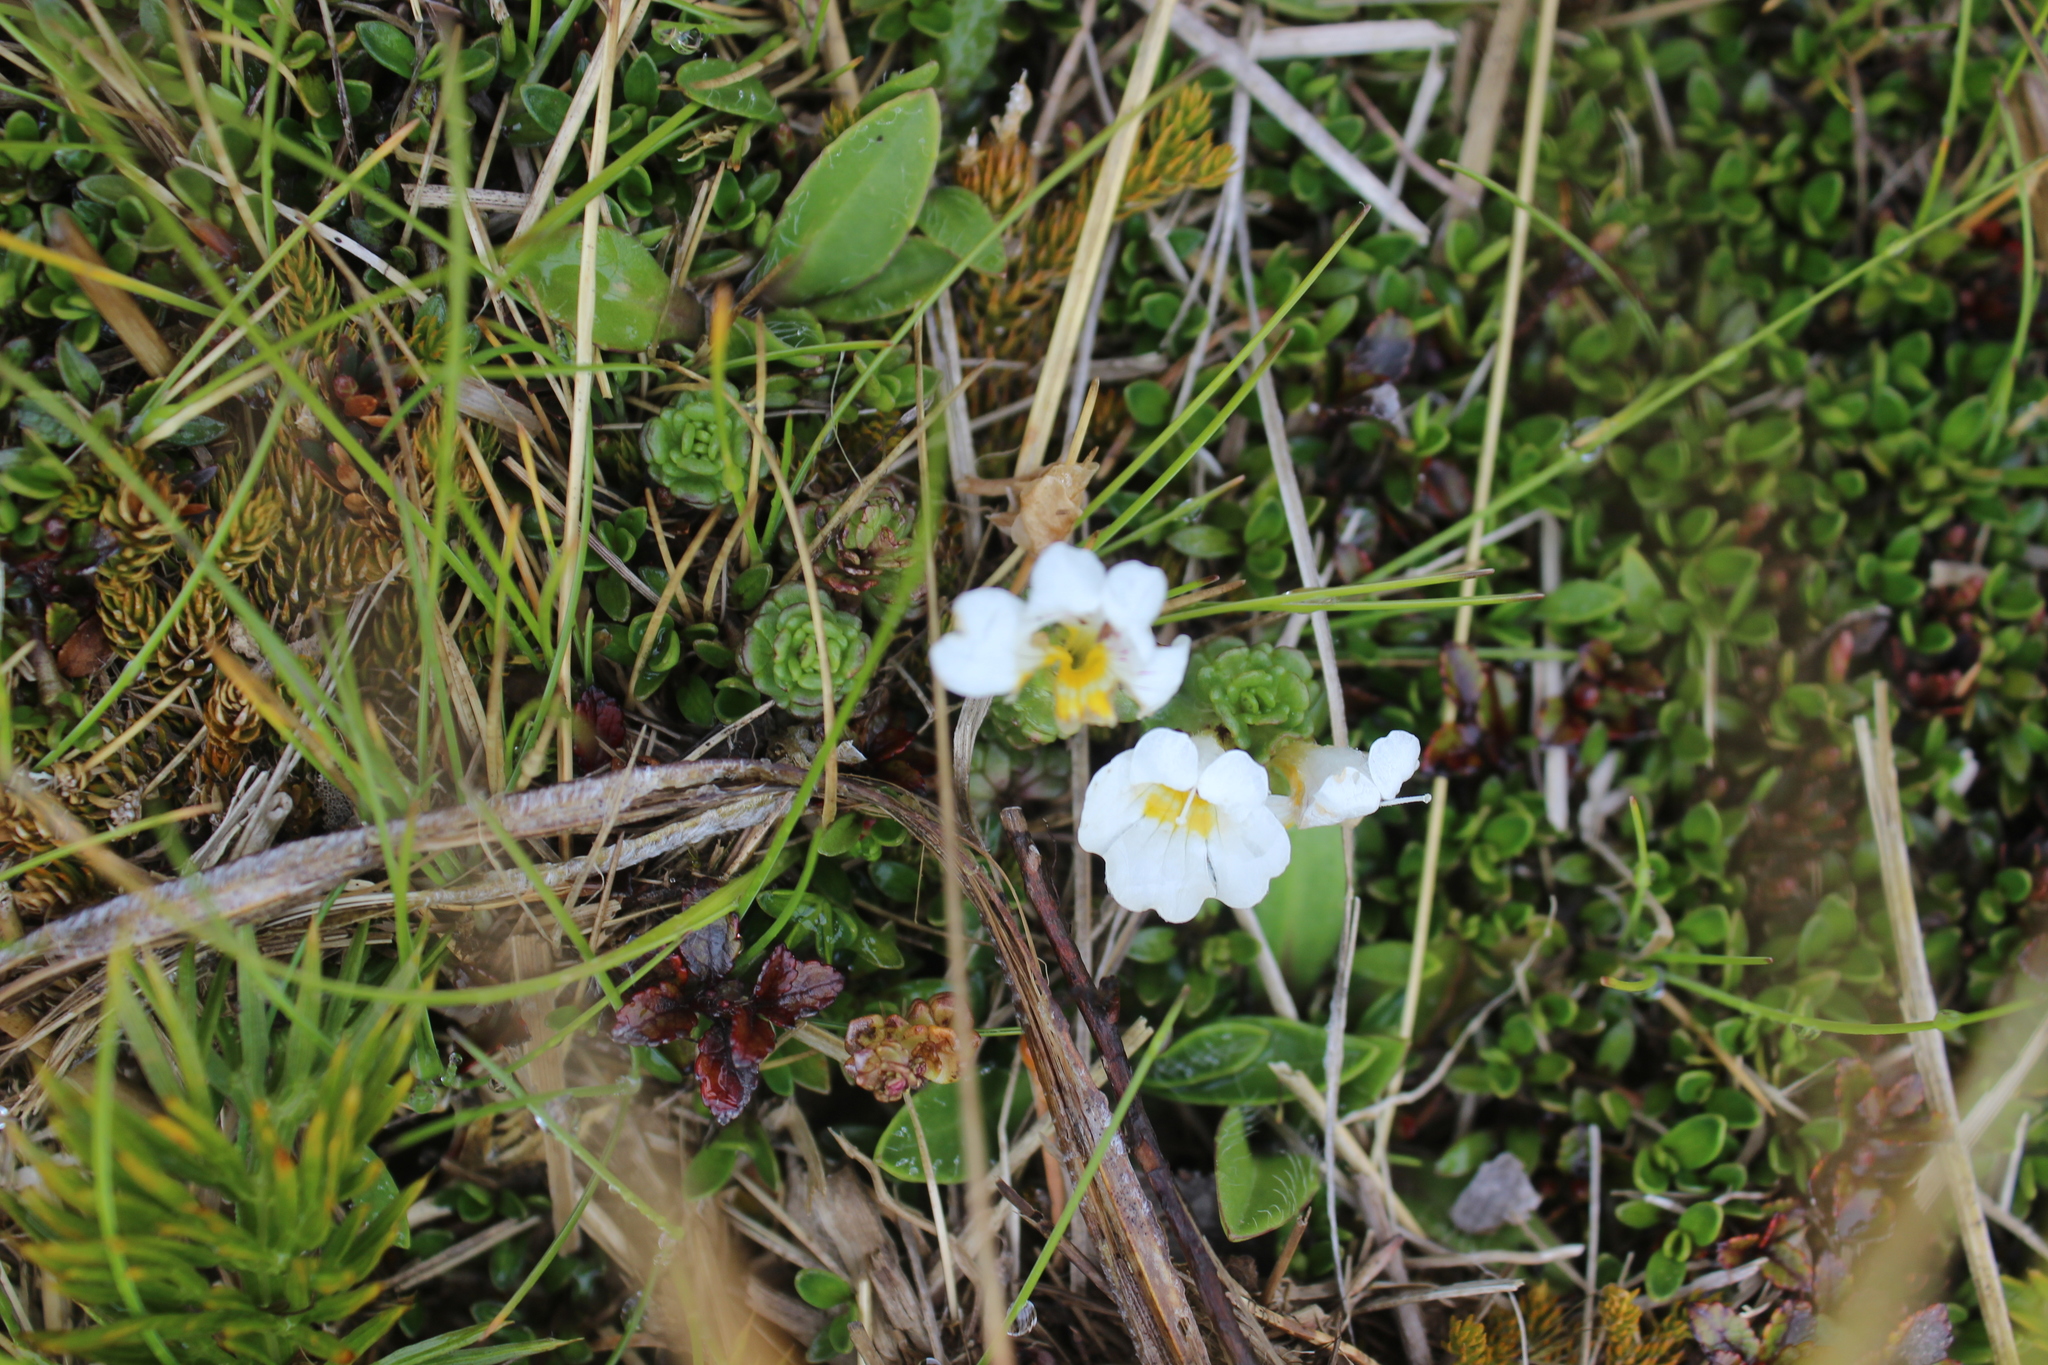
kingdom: Plantae
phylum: Tracheophyta
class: Magnoliopsida
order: Lamiales
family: Orobanchaceae
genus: Euphrasia
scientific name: Euphrasia drucei
